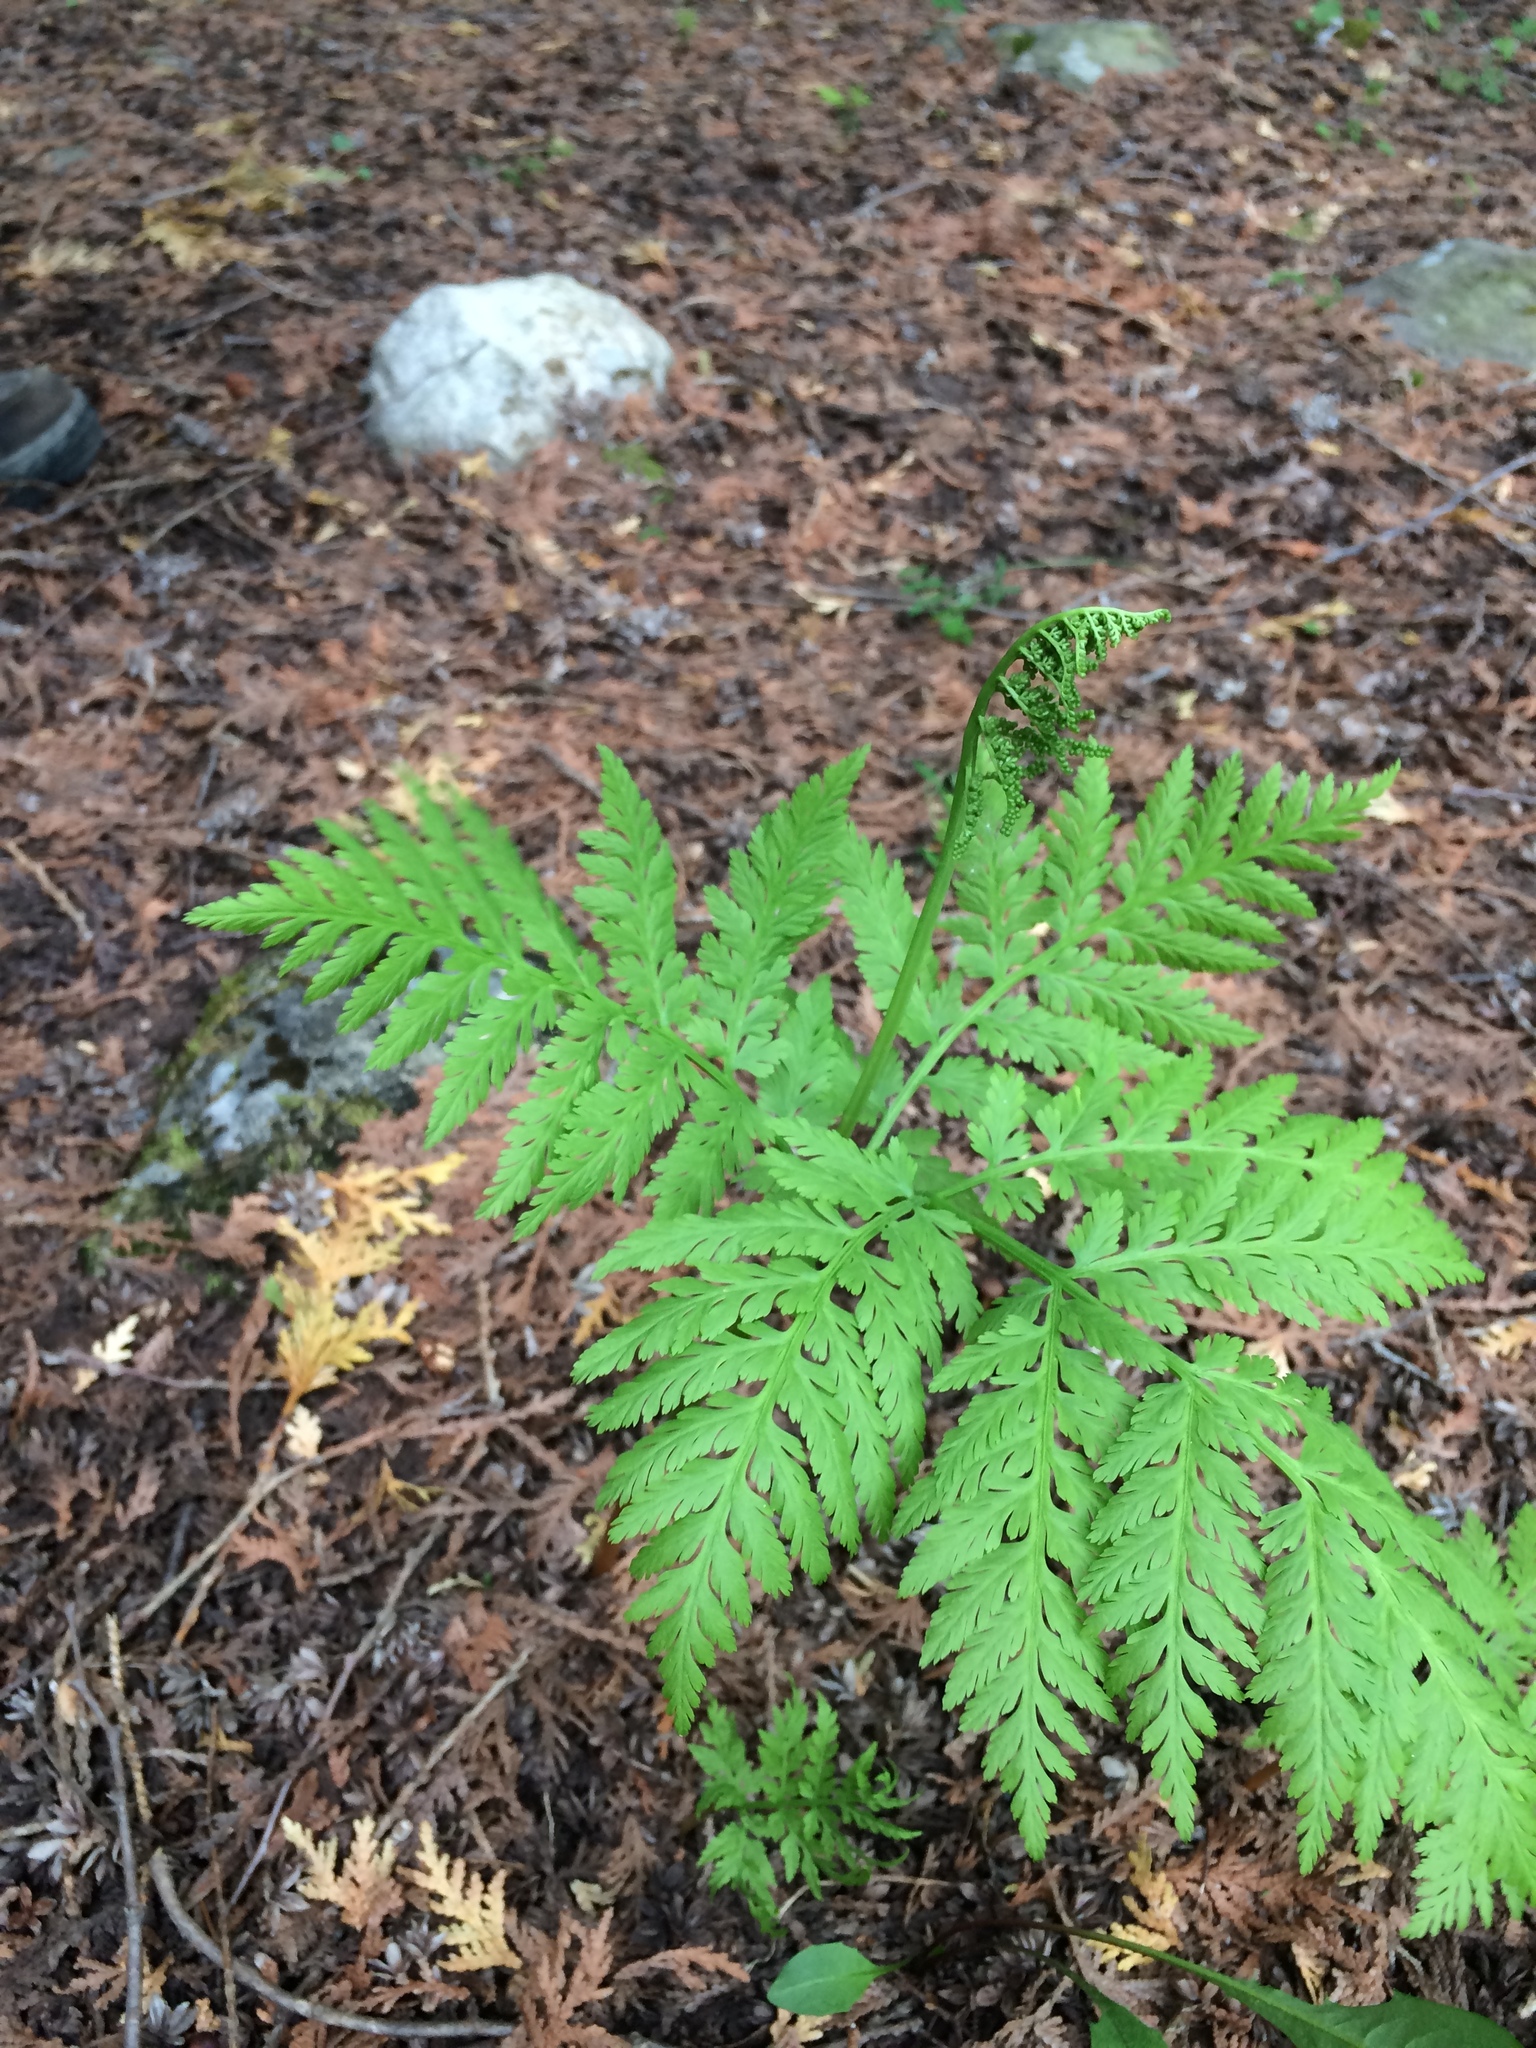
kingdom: Plantae
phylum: Tracheophyta
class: Polypodiopsida
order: Ophioglossales
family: Ophioglossaceae
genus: Botrypus
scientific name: Botrypus virginianus
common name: Common grapefern
